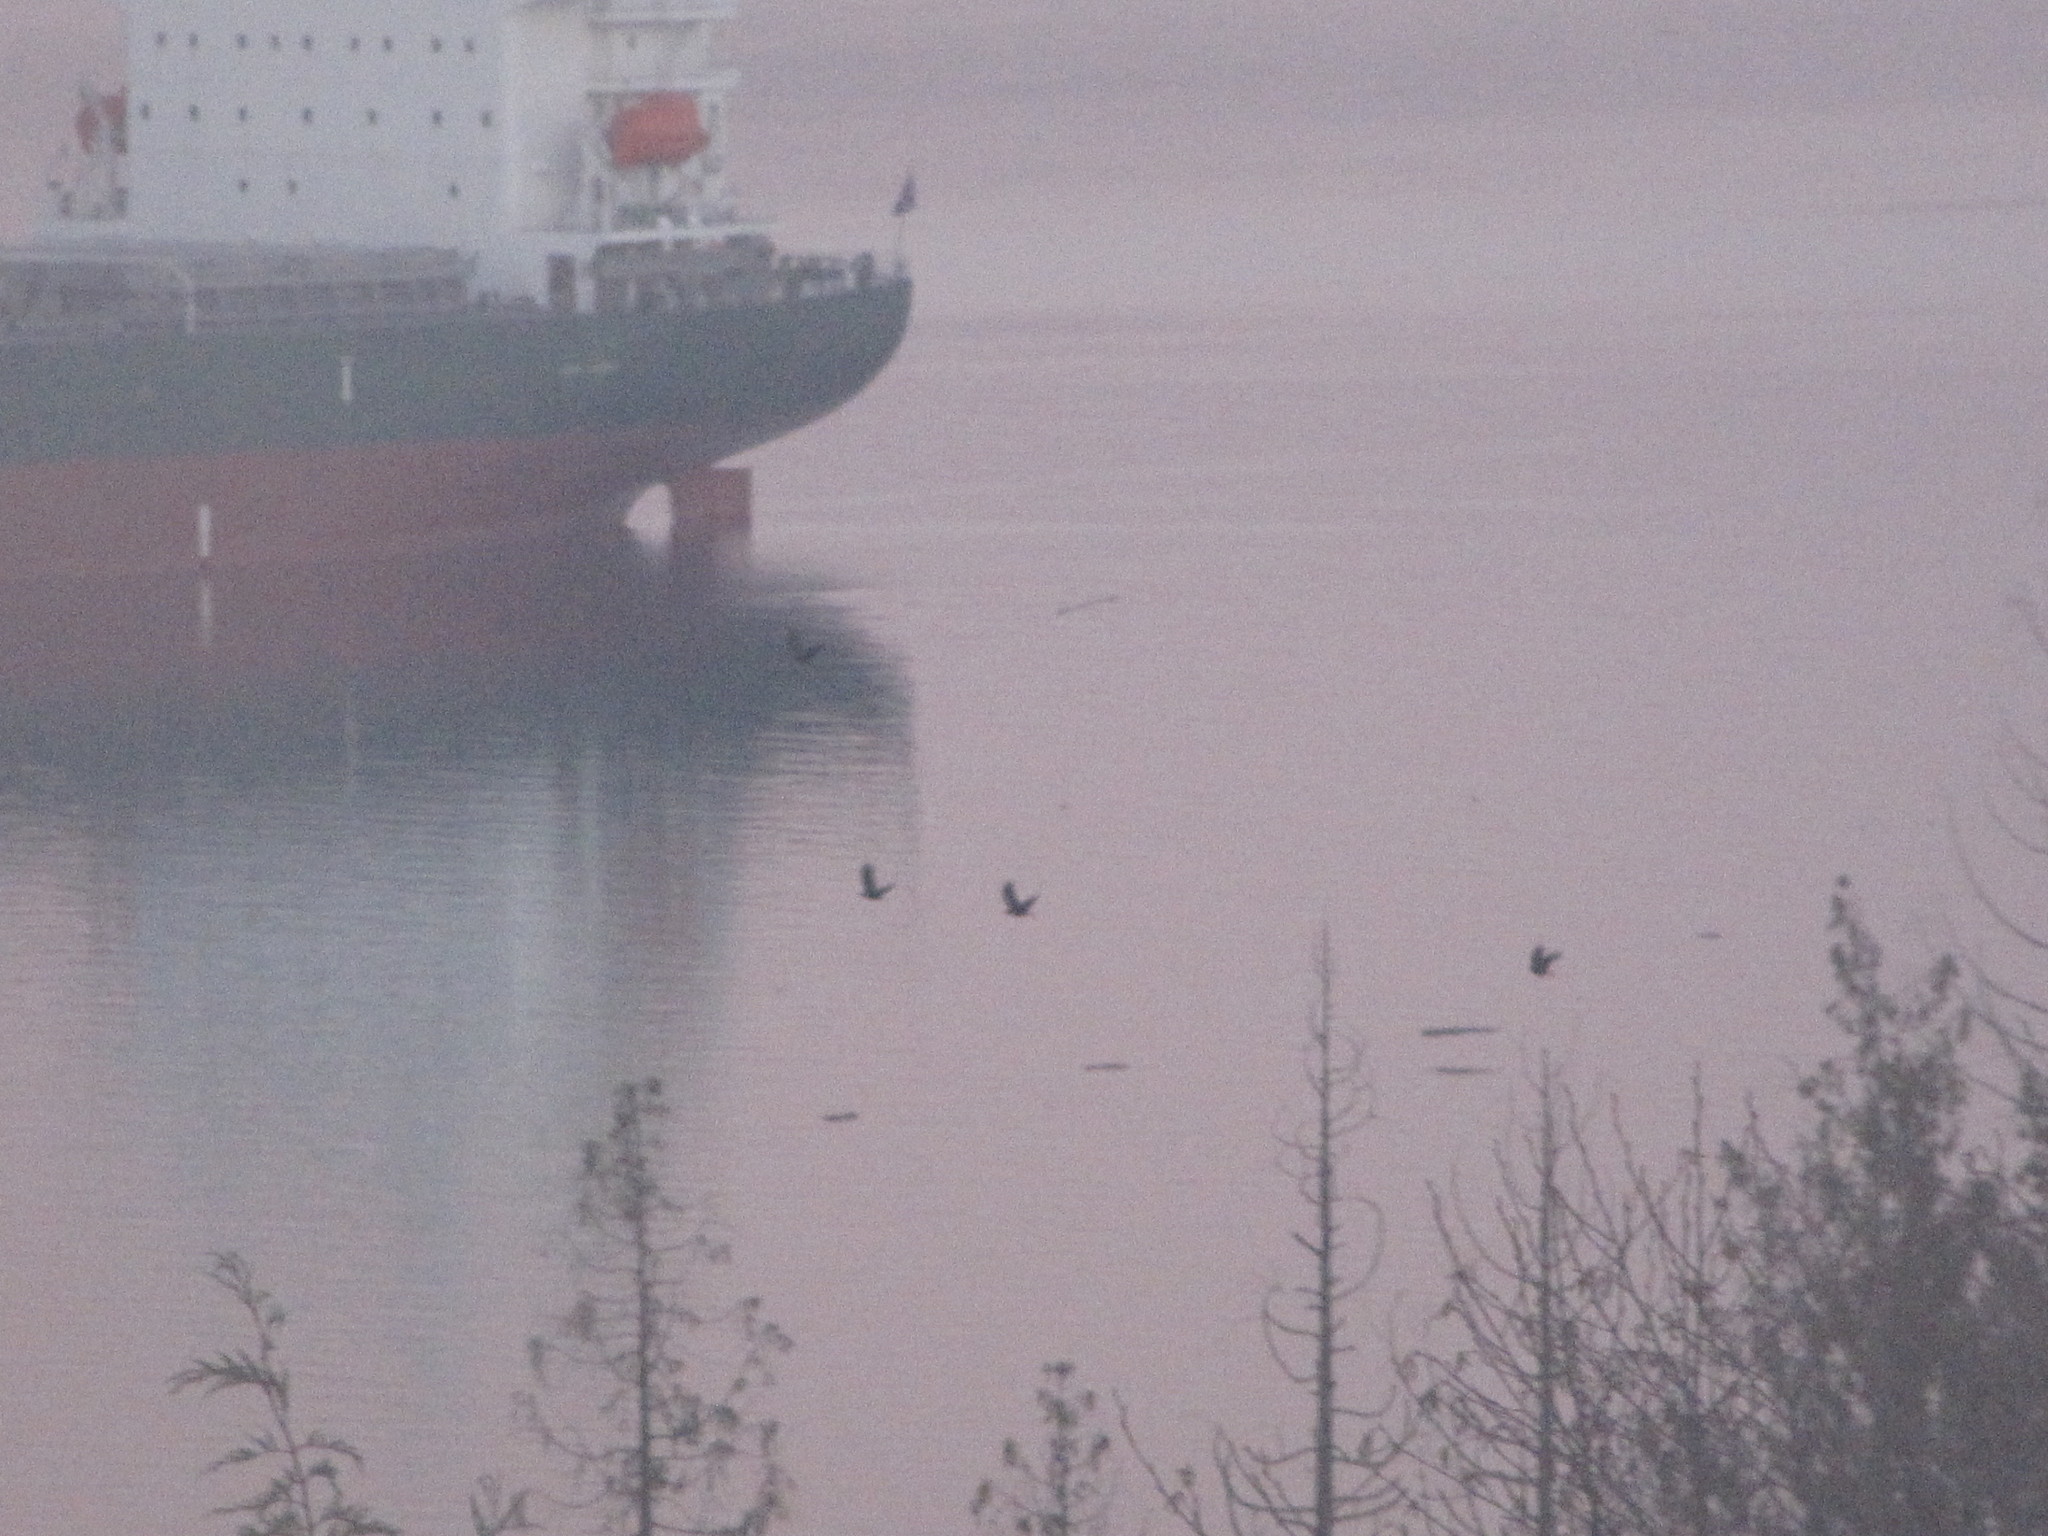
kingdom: Animalia
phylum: Chordata
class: Aves
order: Passeriformes
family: Corvidae
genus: Corvus
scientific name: Corvus brachyrhynchos
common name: American crow
